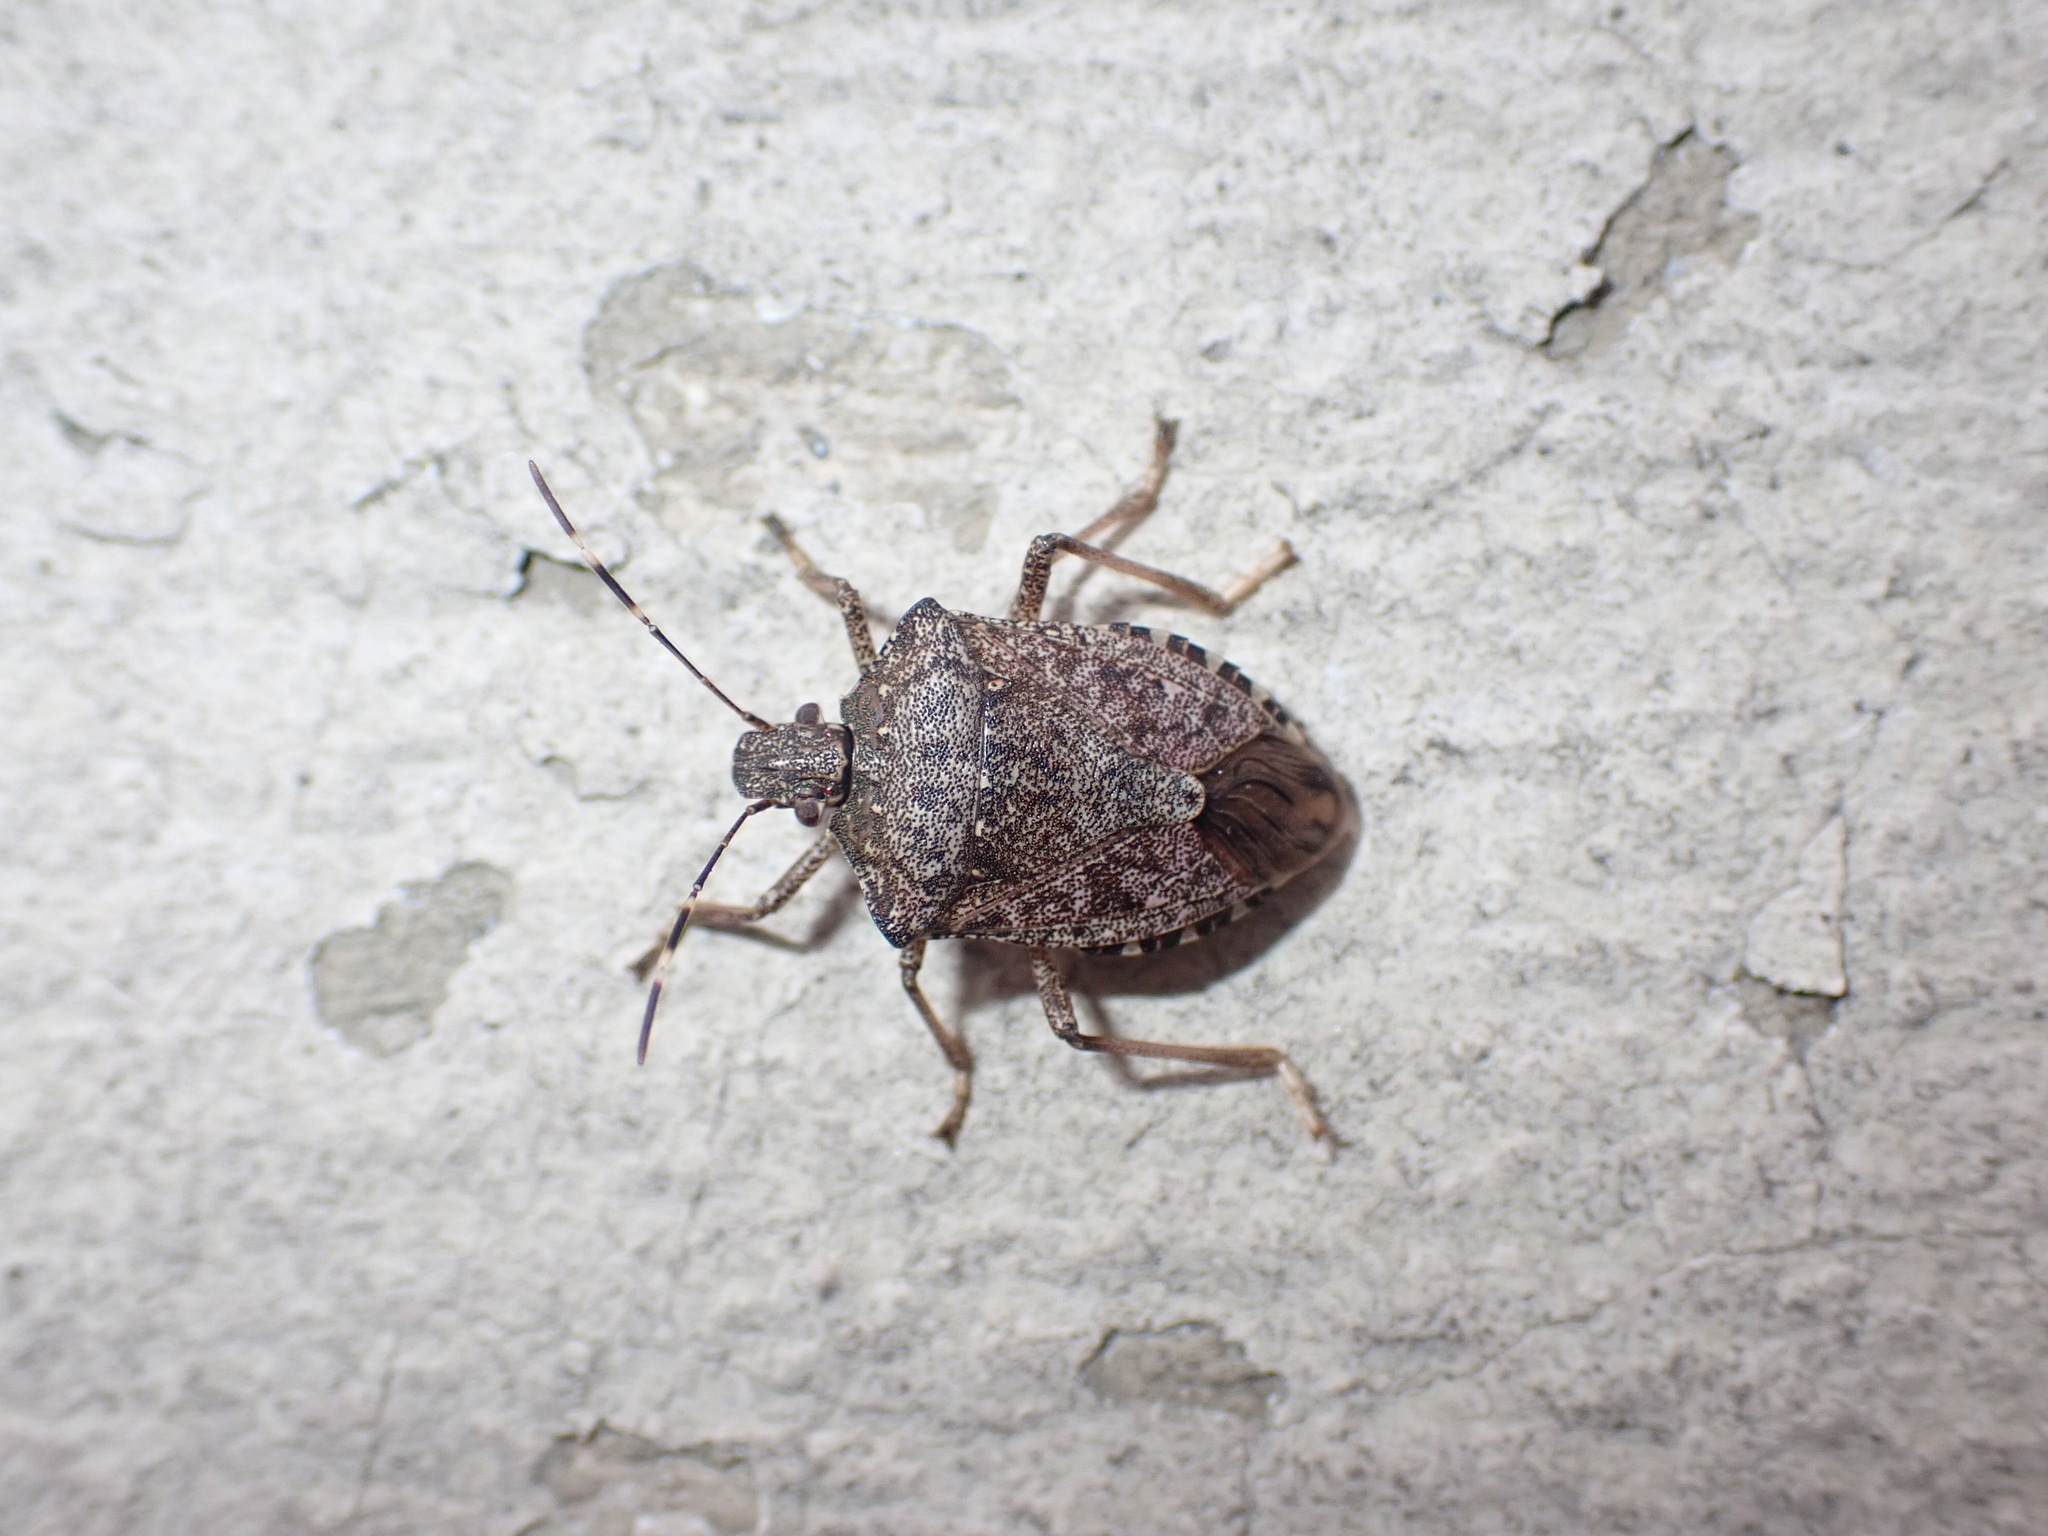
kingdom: Animalia
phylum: Arthropoda
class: Insecta
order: Hemiptera
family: Pentatomidae
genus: Halyomorpha
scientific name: Halyomorpha halys
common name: Brown marmorated stink bug
